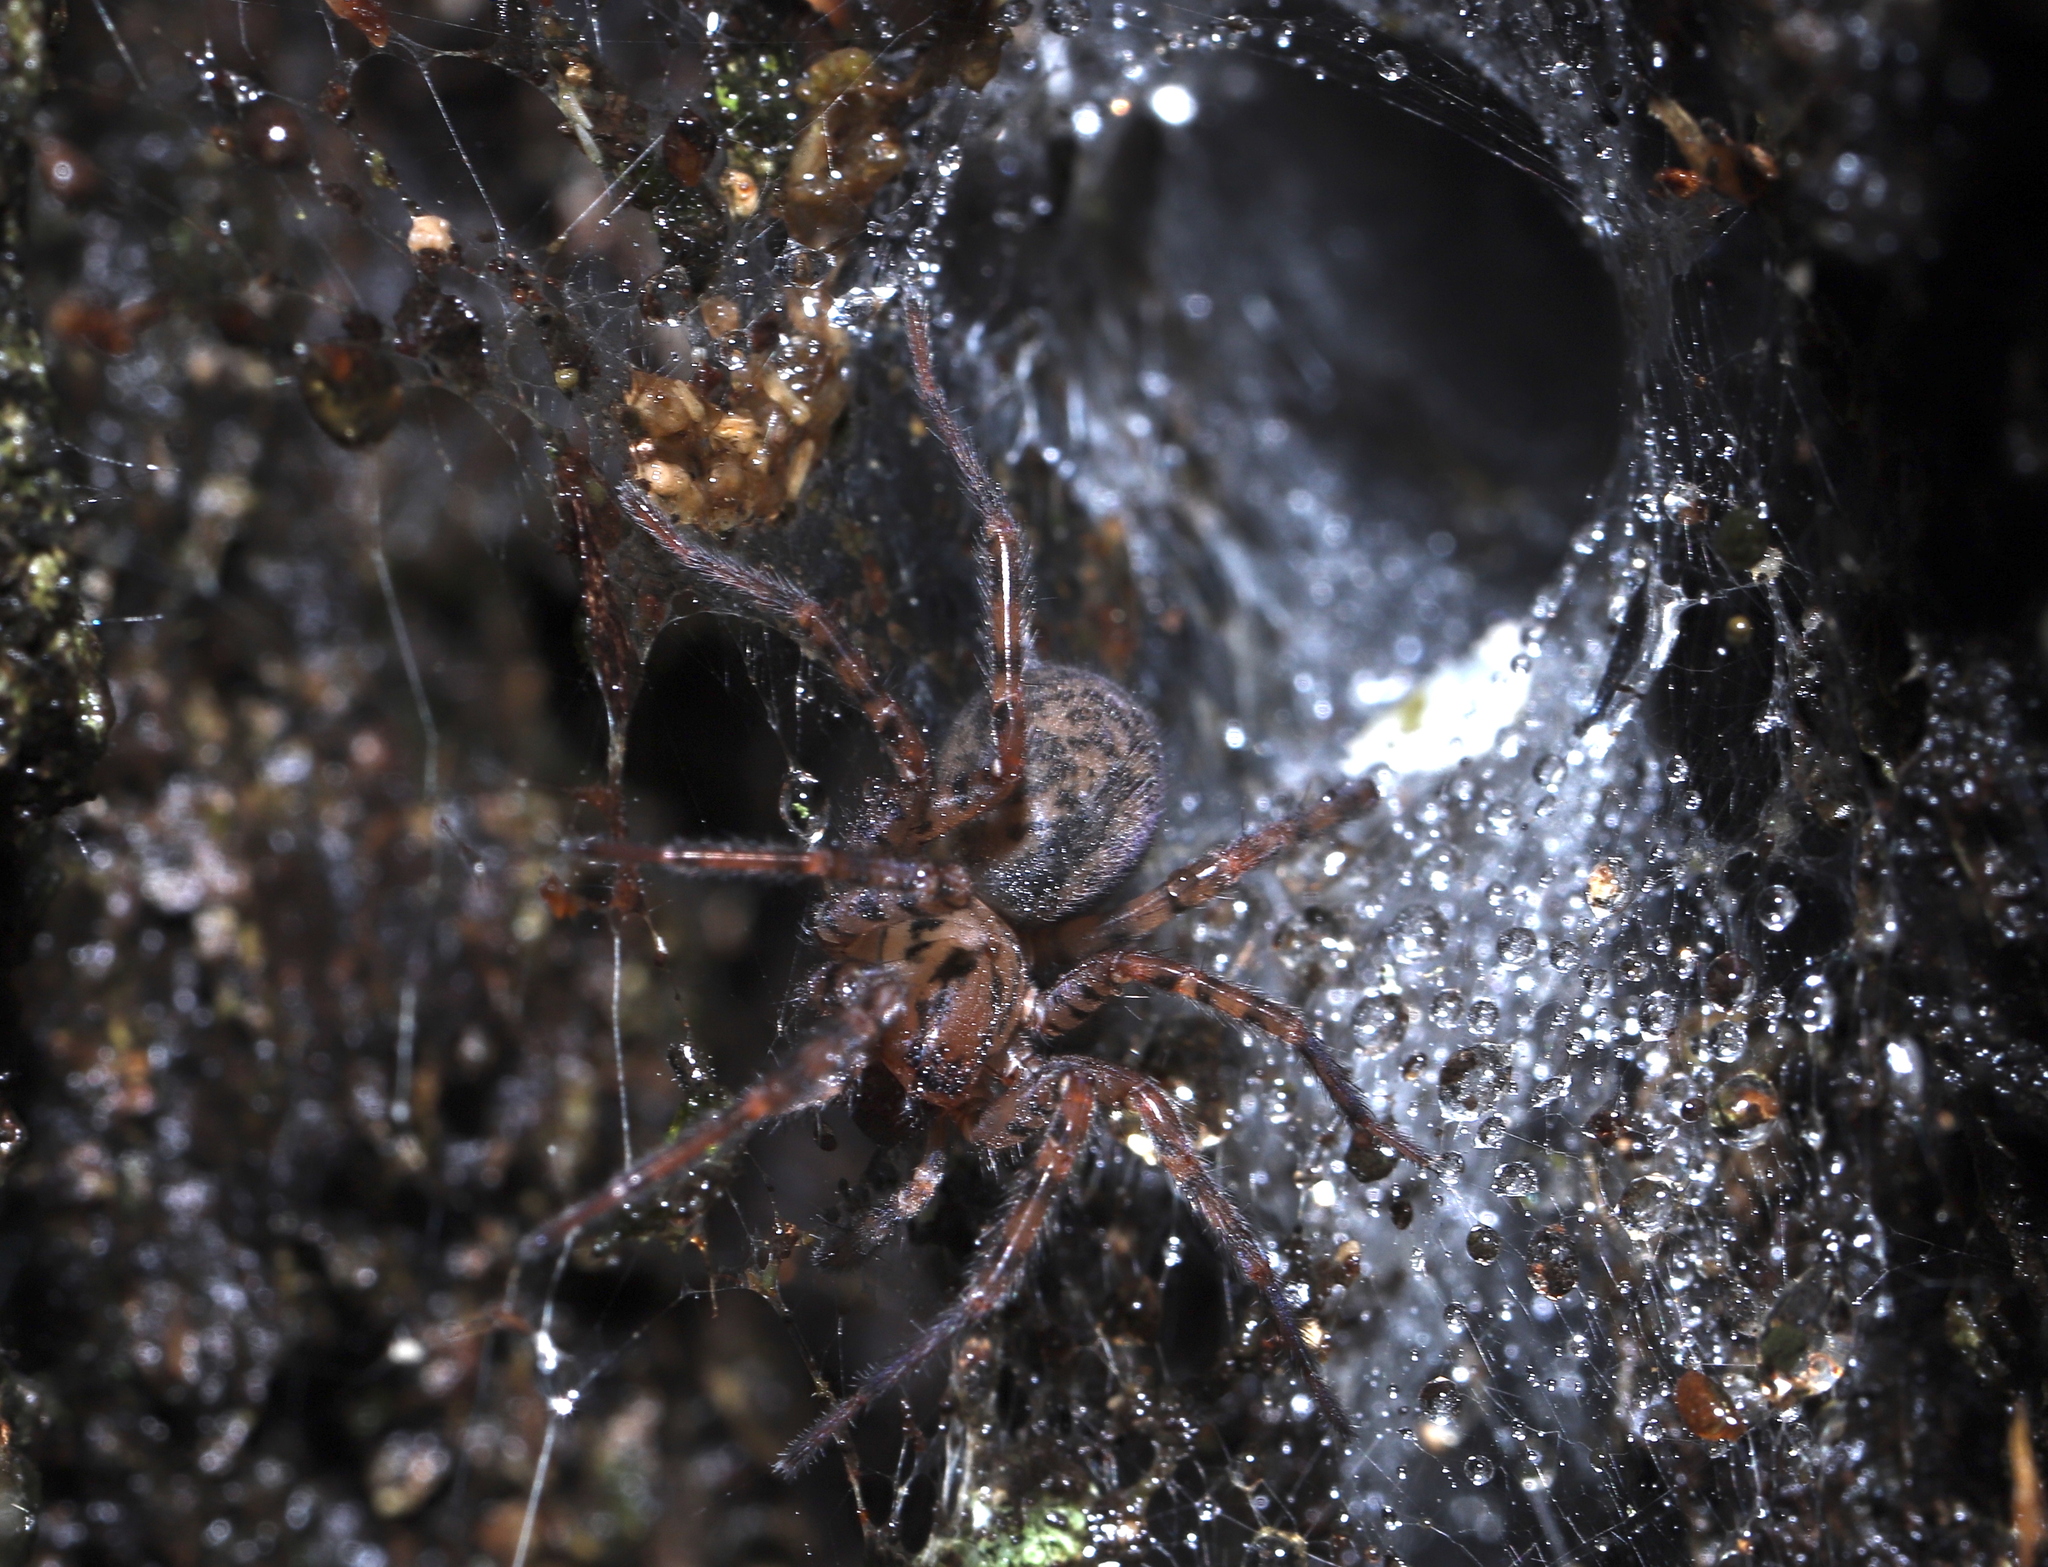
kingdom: Animalia
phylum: Arthropoda
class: Arachnida
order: Araneae
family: Agelenidae
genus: Coras
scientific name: Coras
